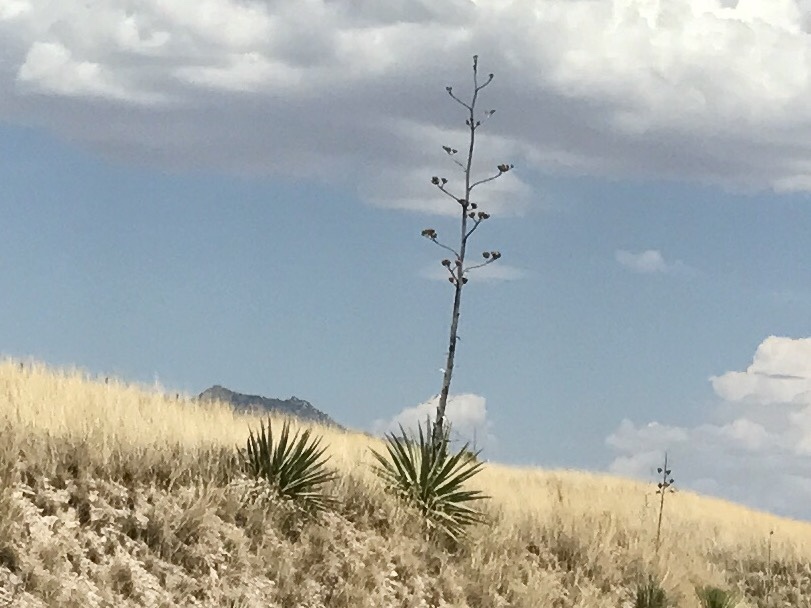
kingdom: Plantae
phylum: Tracheophyta
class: Liliopsida
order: Asparagales
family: Asparagaceae
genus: Agave
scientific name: Agave palmeri
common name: Palmer agave
